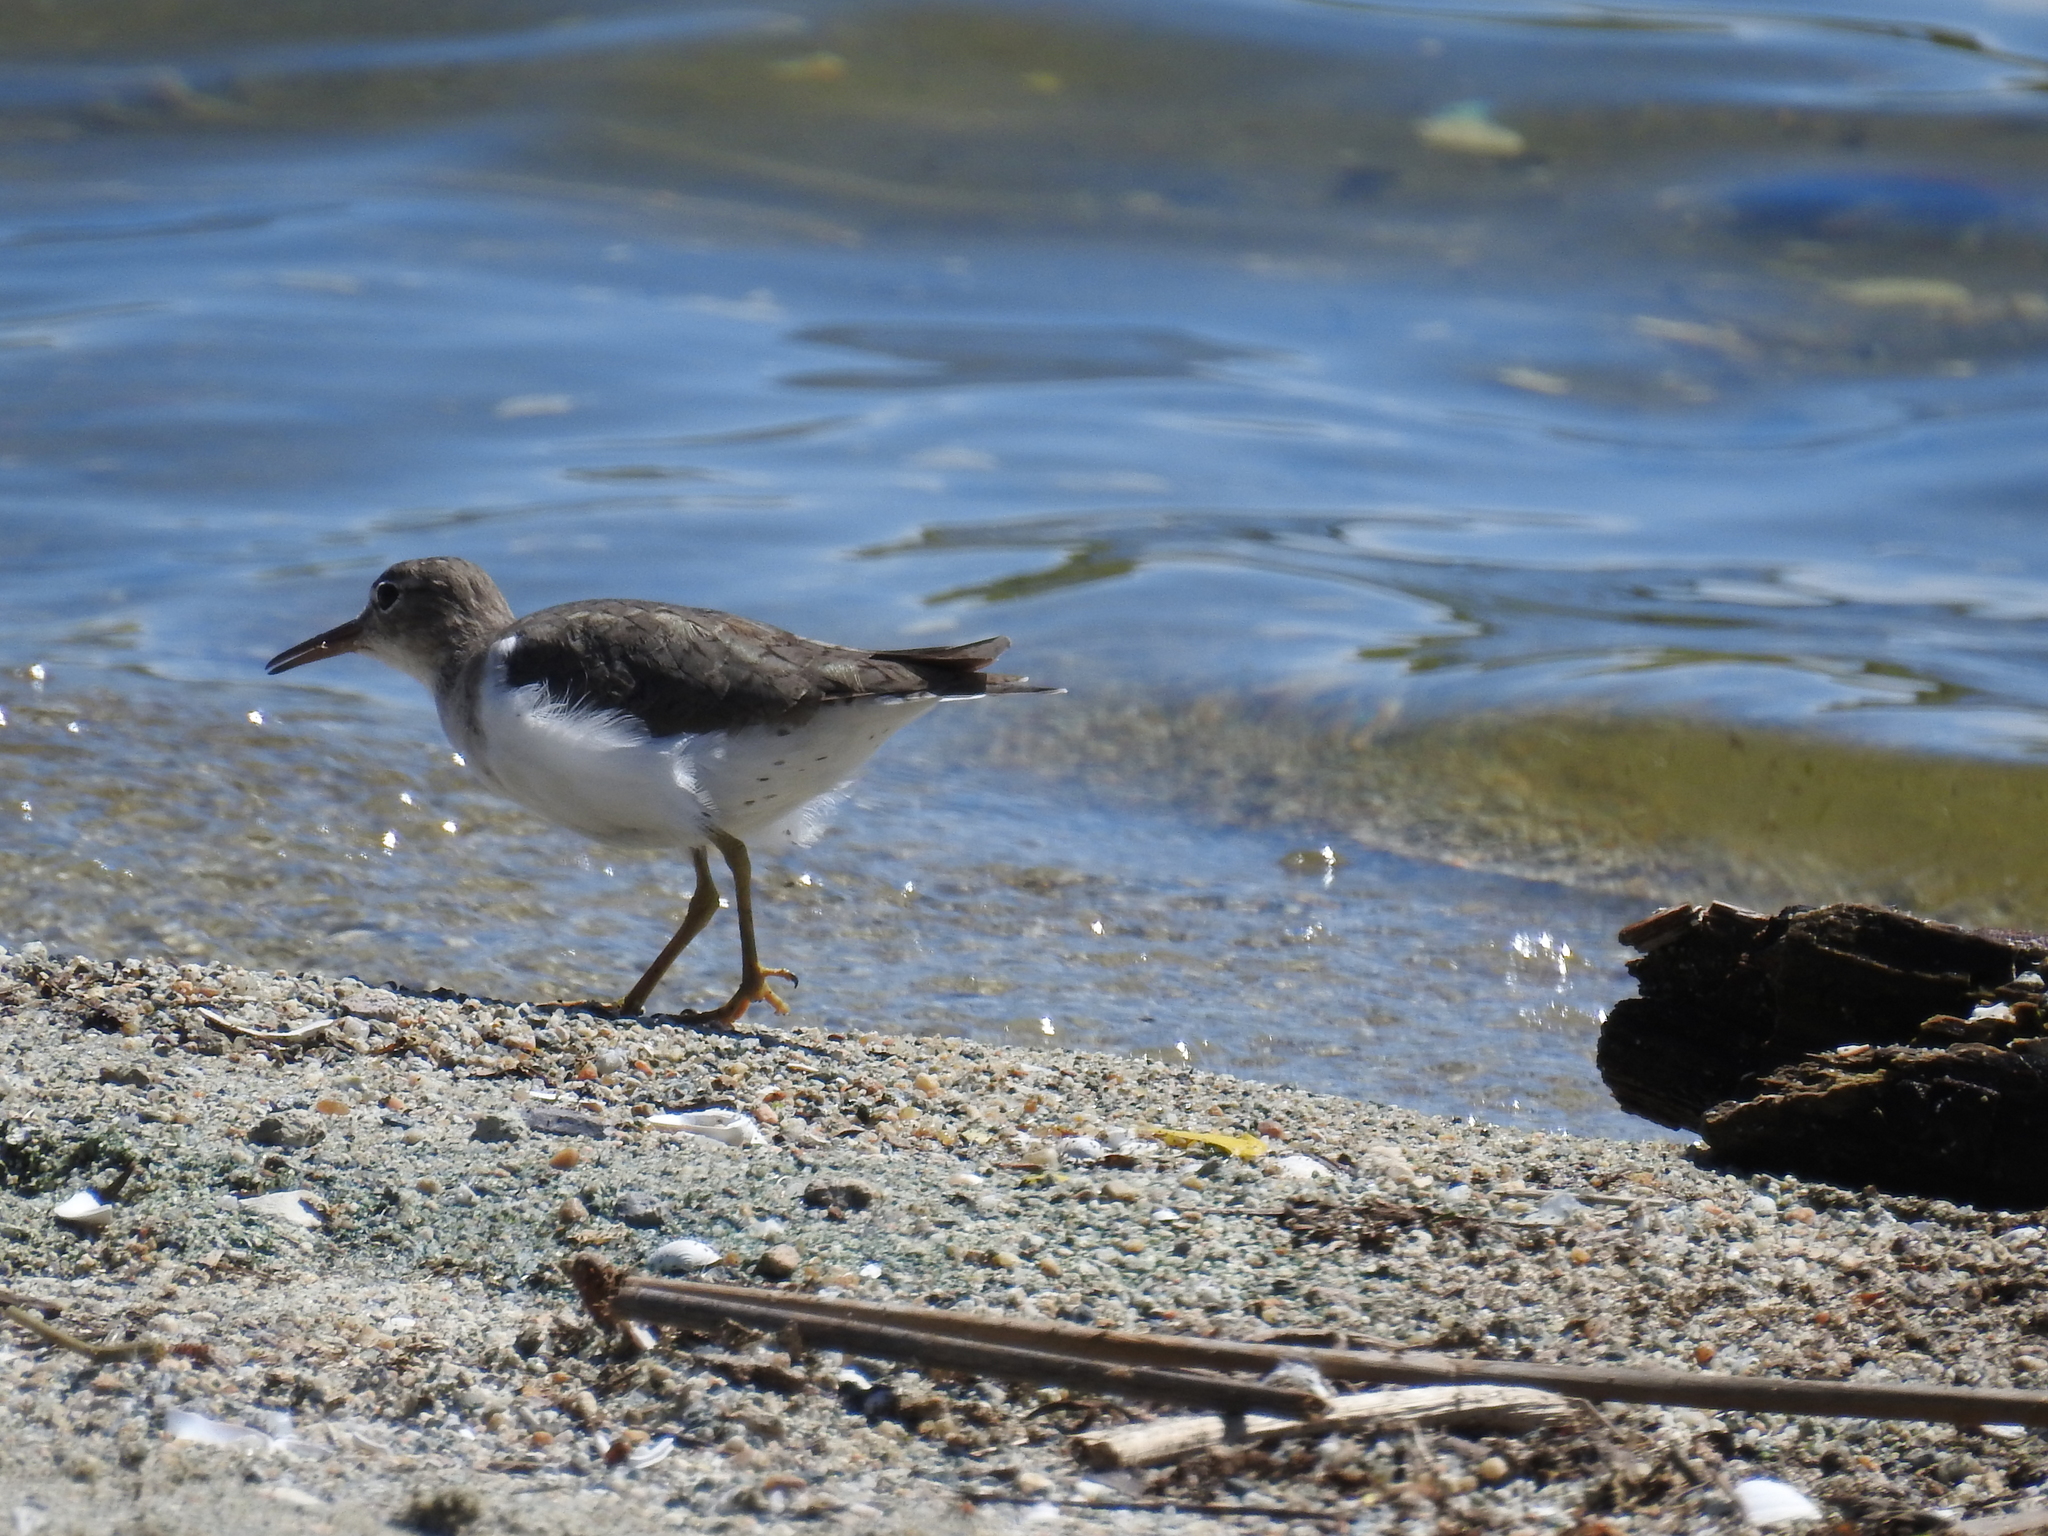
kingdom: Animalia
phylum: Chordata
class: Aves
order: Charadriiformes
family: Scolopacidae
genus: Actitis
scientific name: Actitis macularius
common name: Spotted sandpiper
